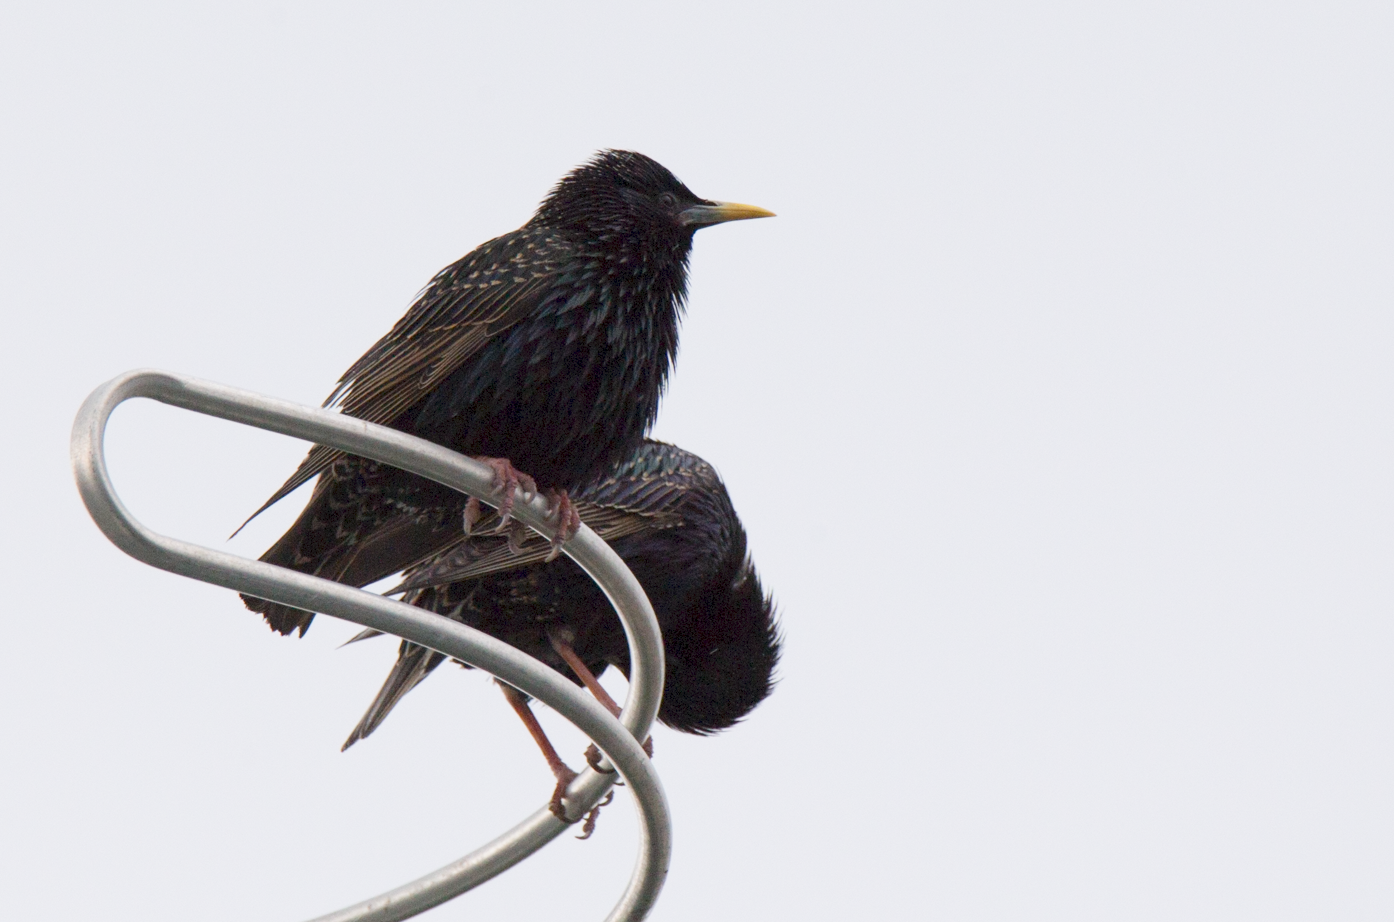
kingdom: Animalia
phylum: Chordata
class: Aves
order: Passeriformes
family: Sturnidae
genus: Sturnus
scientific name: Sturnus vulgaris
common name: Common starling
